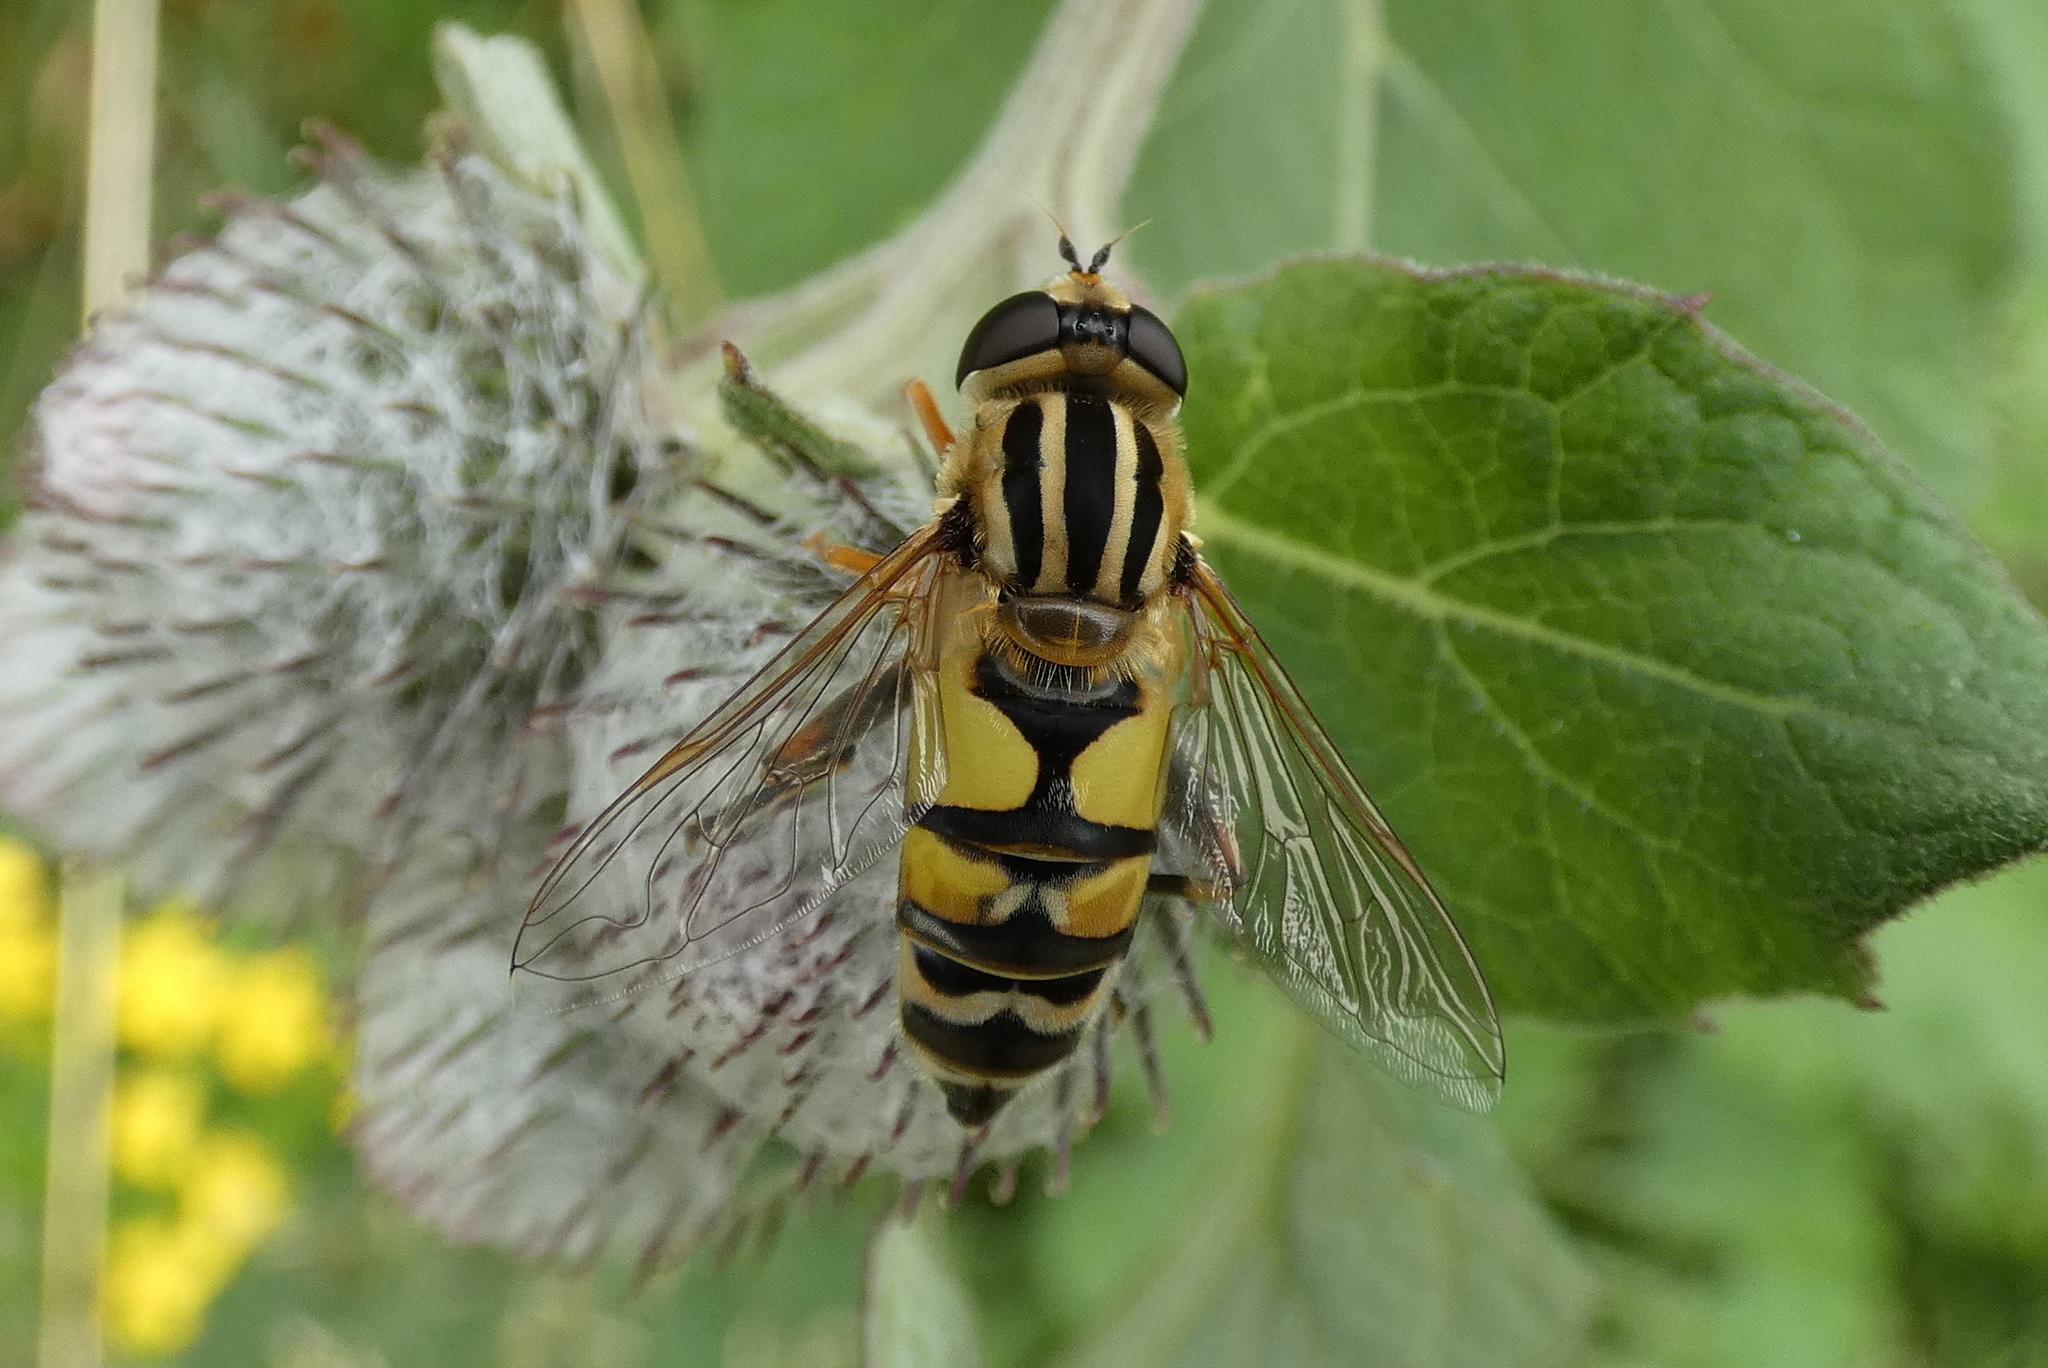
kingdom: Animalia
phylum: Arthropoda
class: Insecta
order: Diptera
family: Syrphidae
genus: Helophilus
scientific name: Helophilus trivittatus
